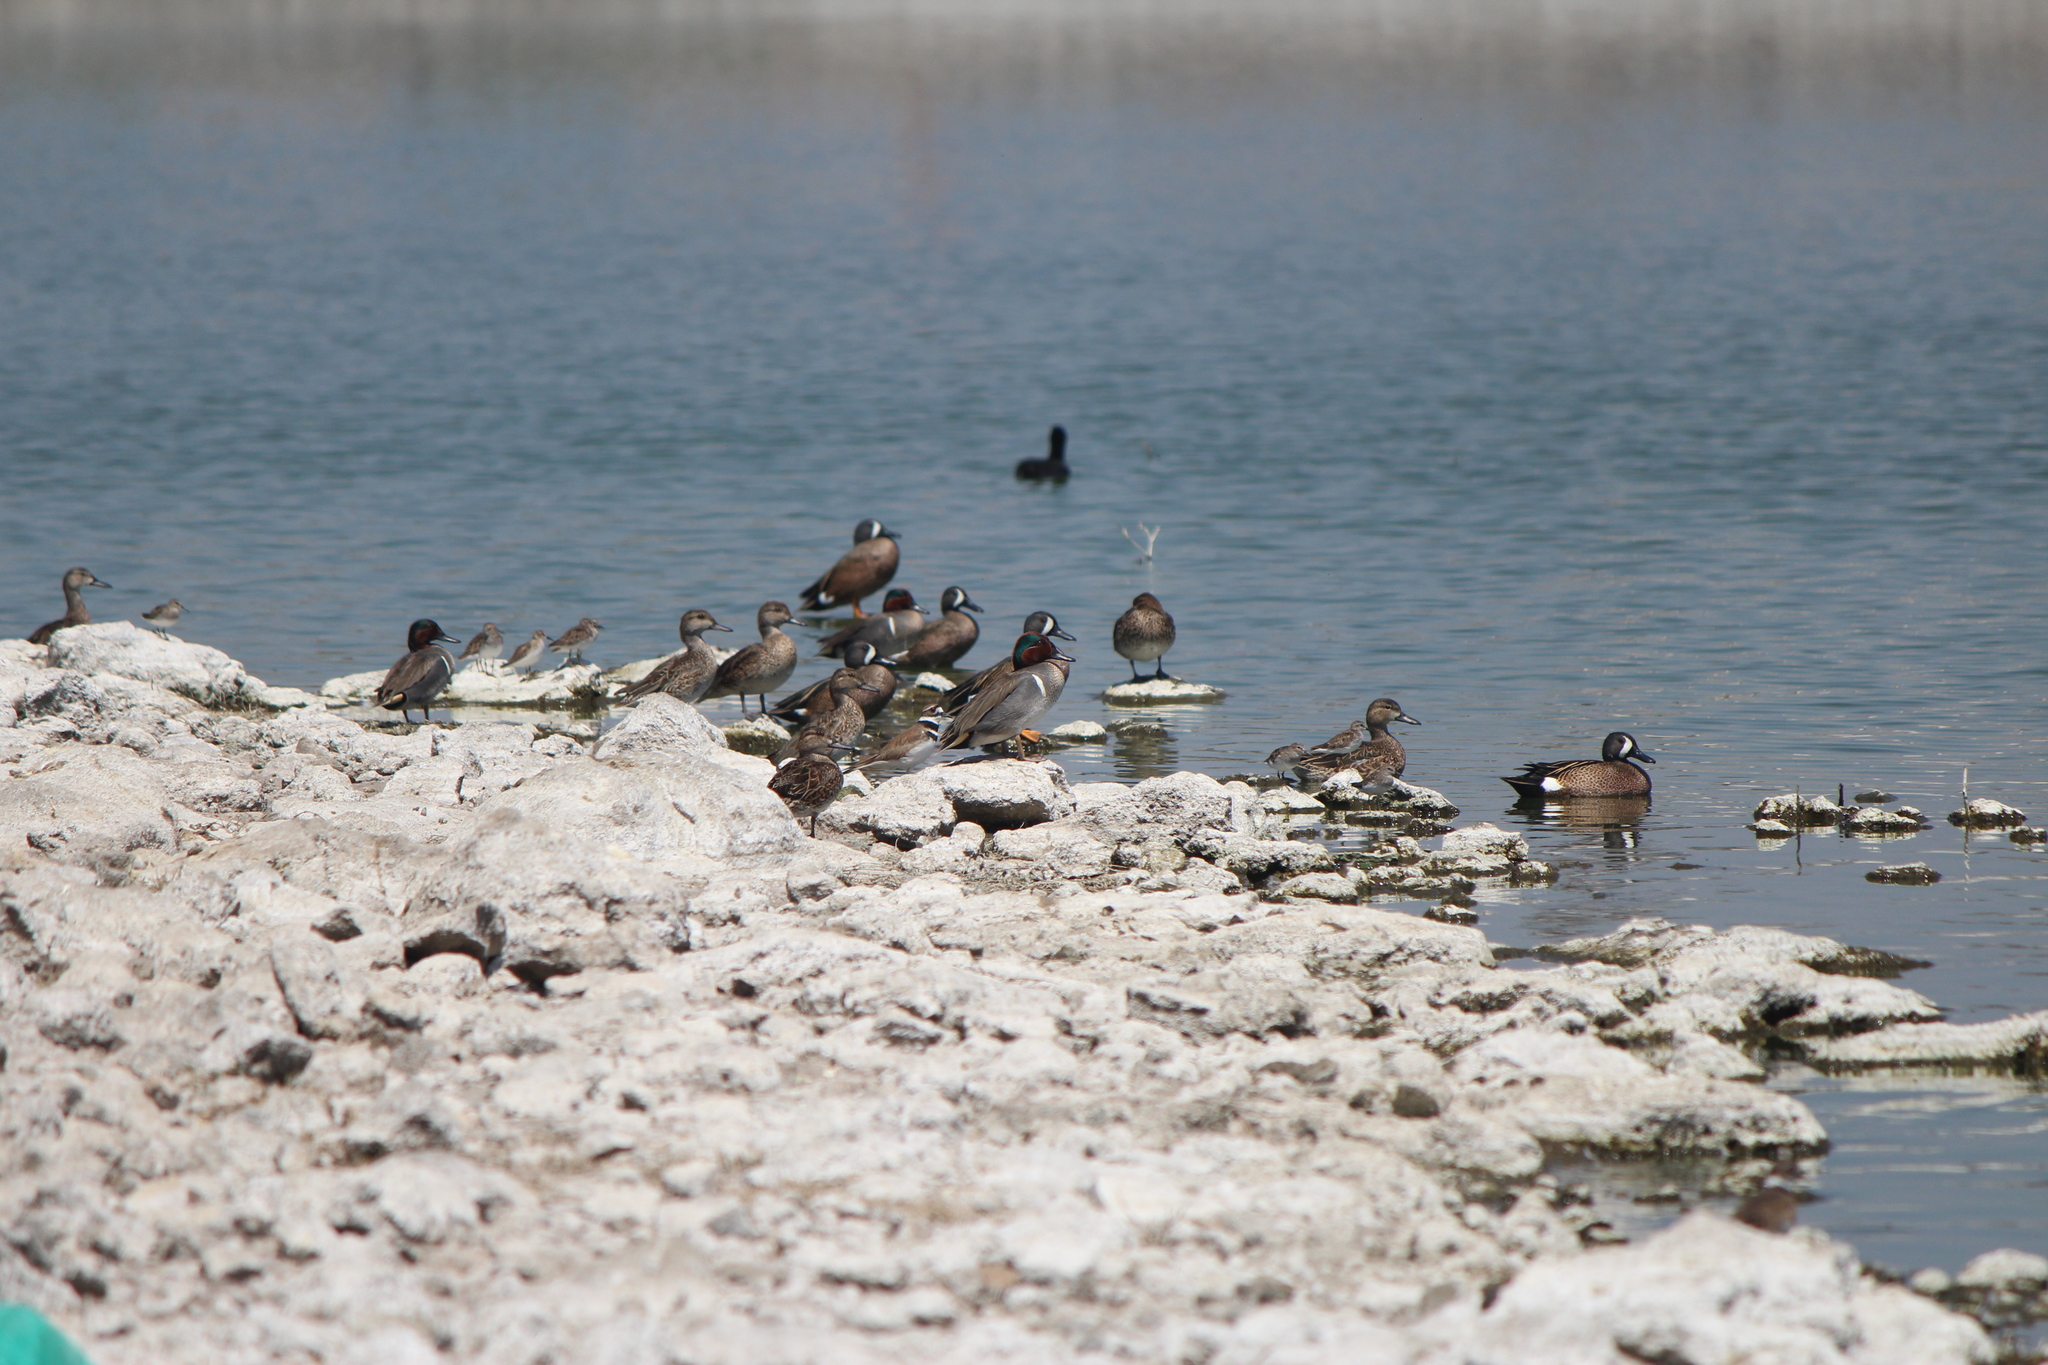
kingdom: Animalia
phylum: Chordata
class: Aves
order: Anseriformes
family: Anatidae
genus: Anas
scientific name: Anas crecca
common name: Eurasian teal
